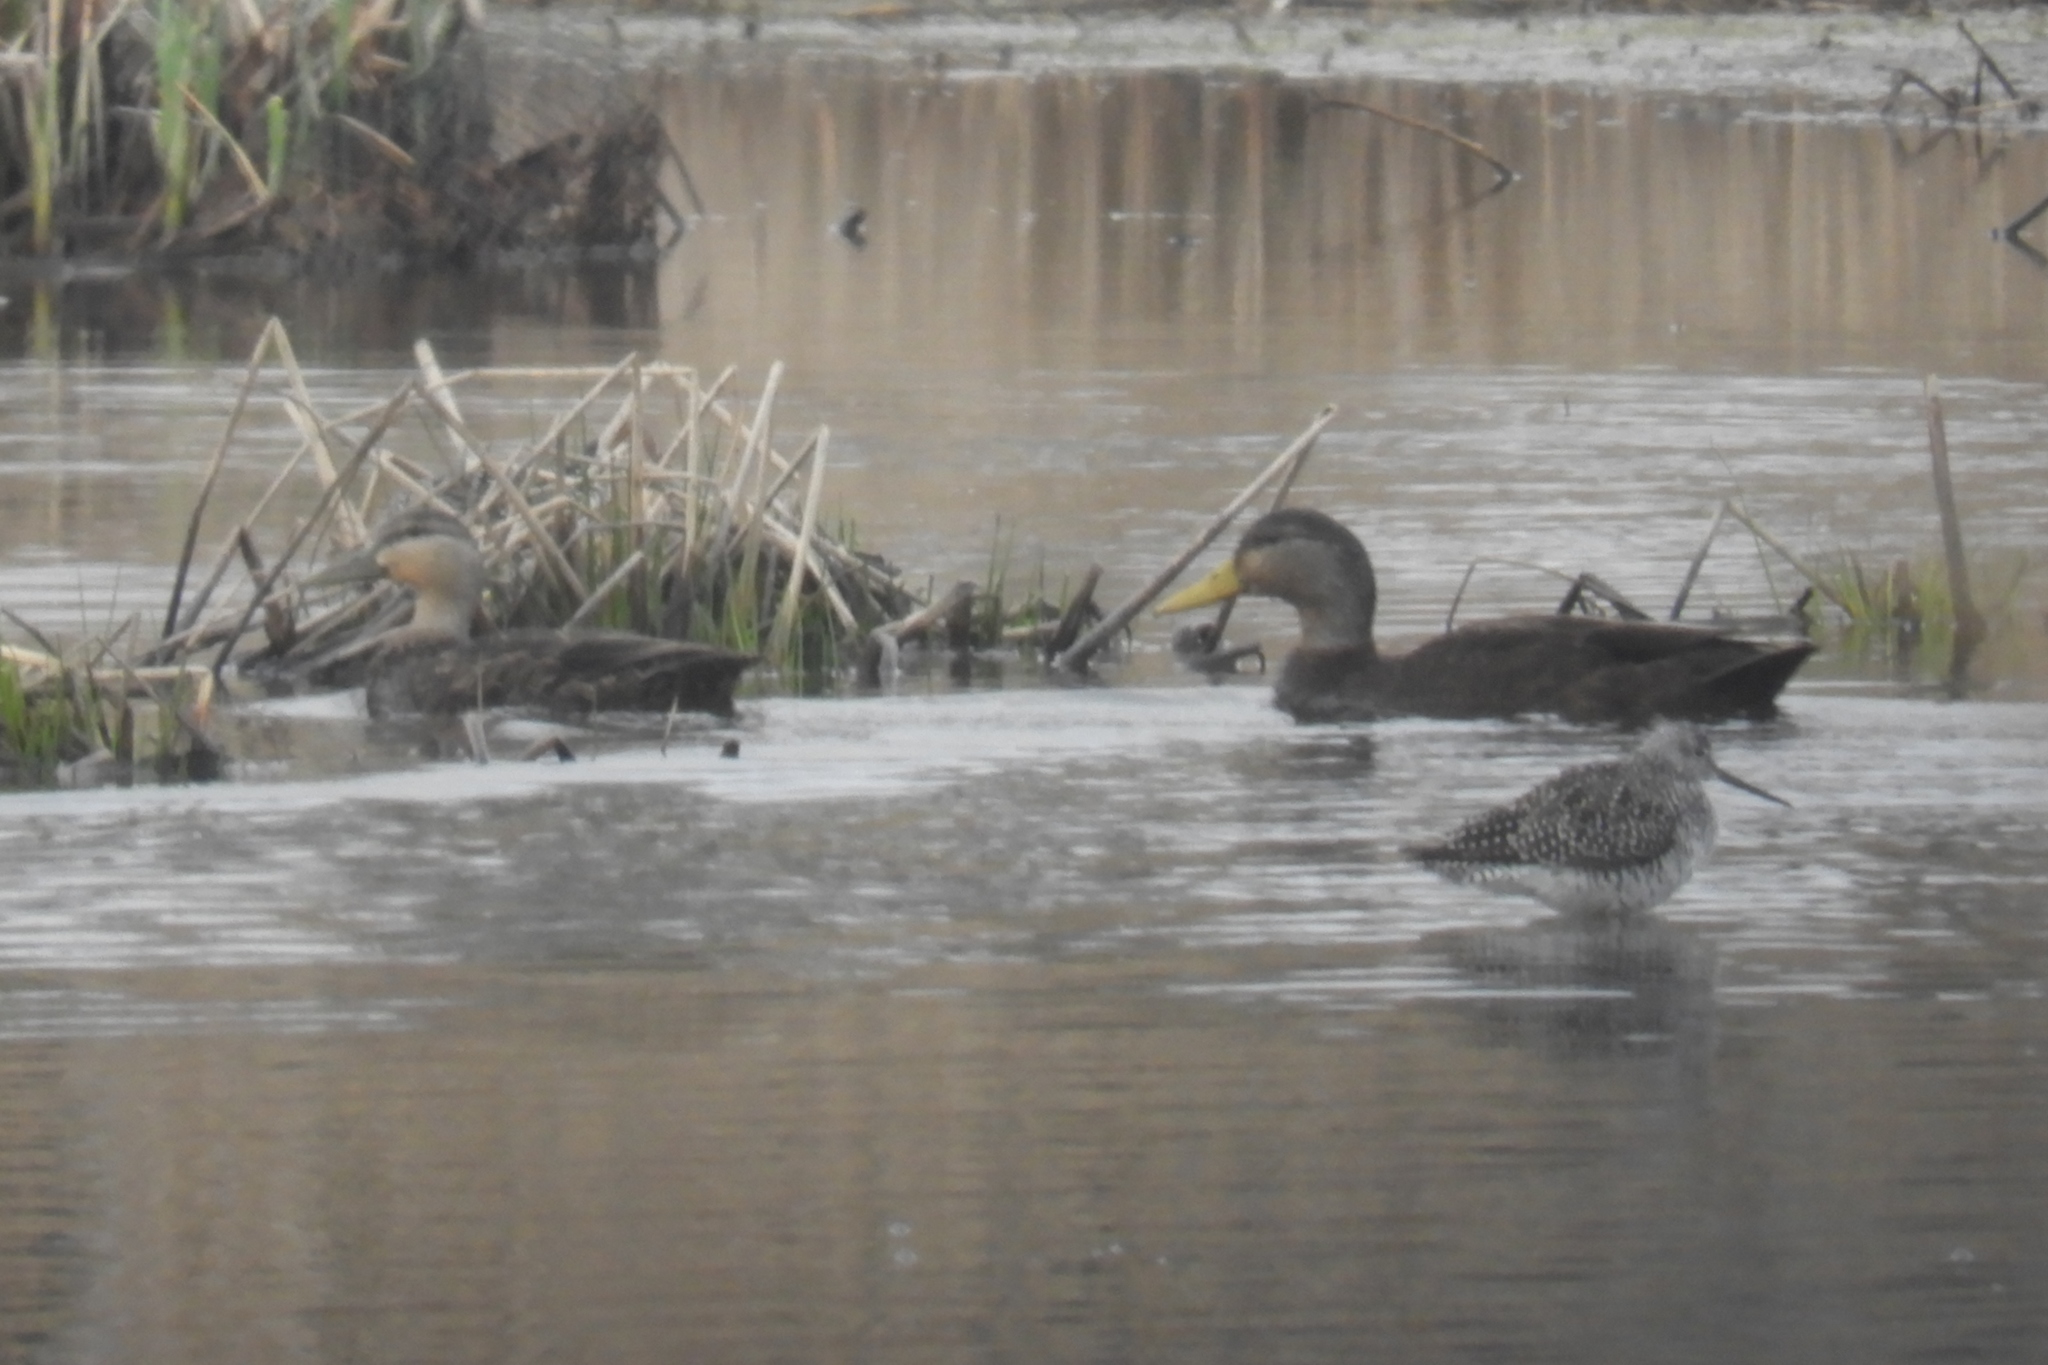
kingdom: Animalia
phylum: Chordata
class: Aves
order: Anseriformes
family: Anatidae
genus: Anas
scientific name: Anas rubripes
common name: American black duck
